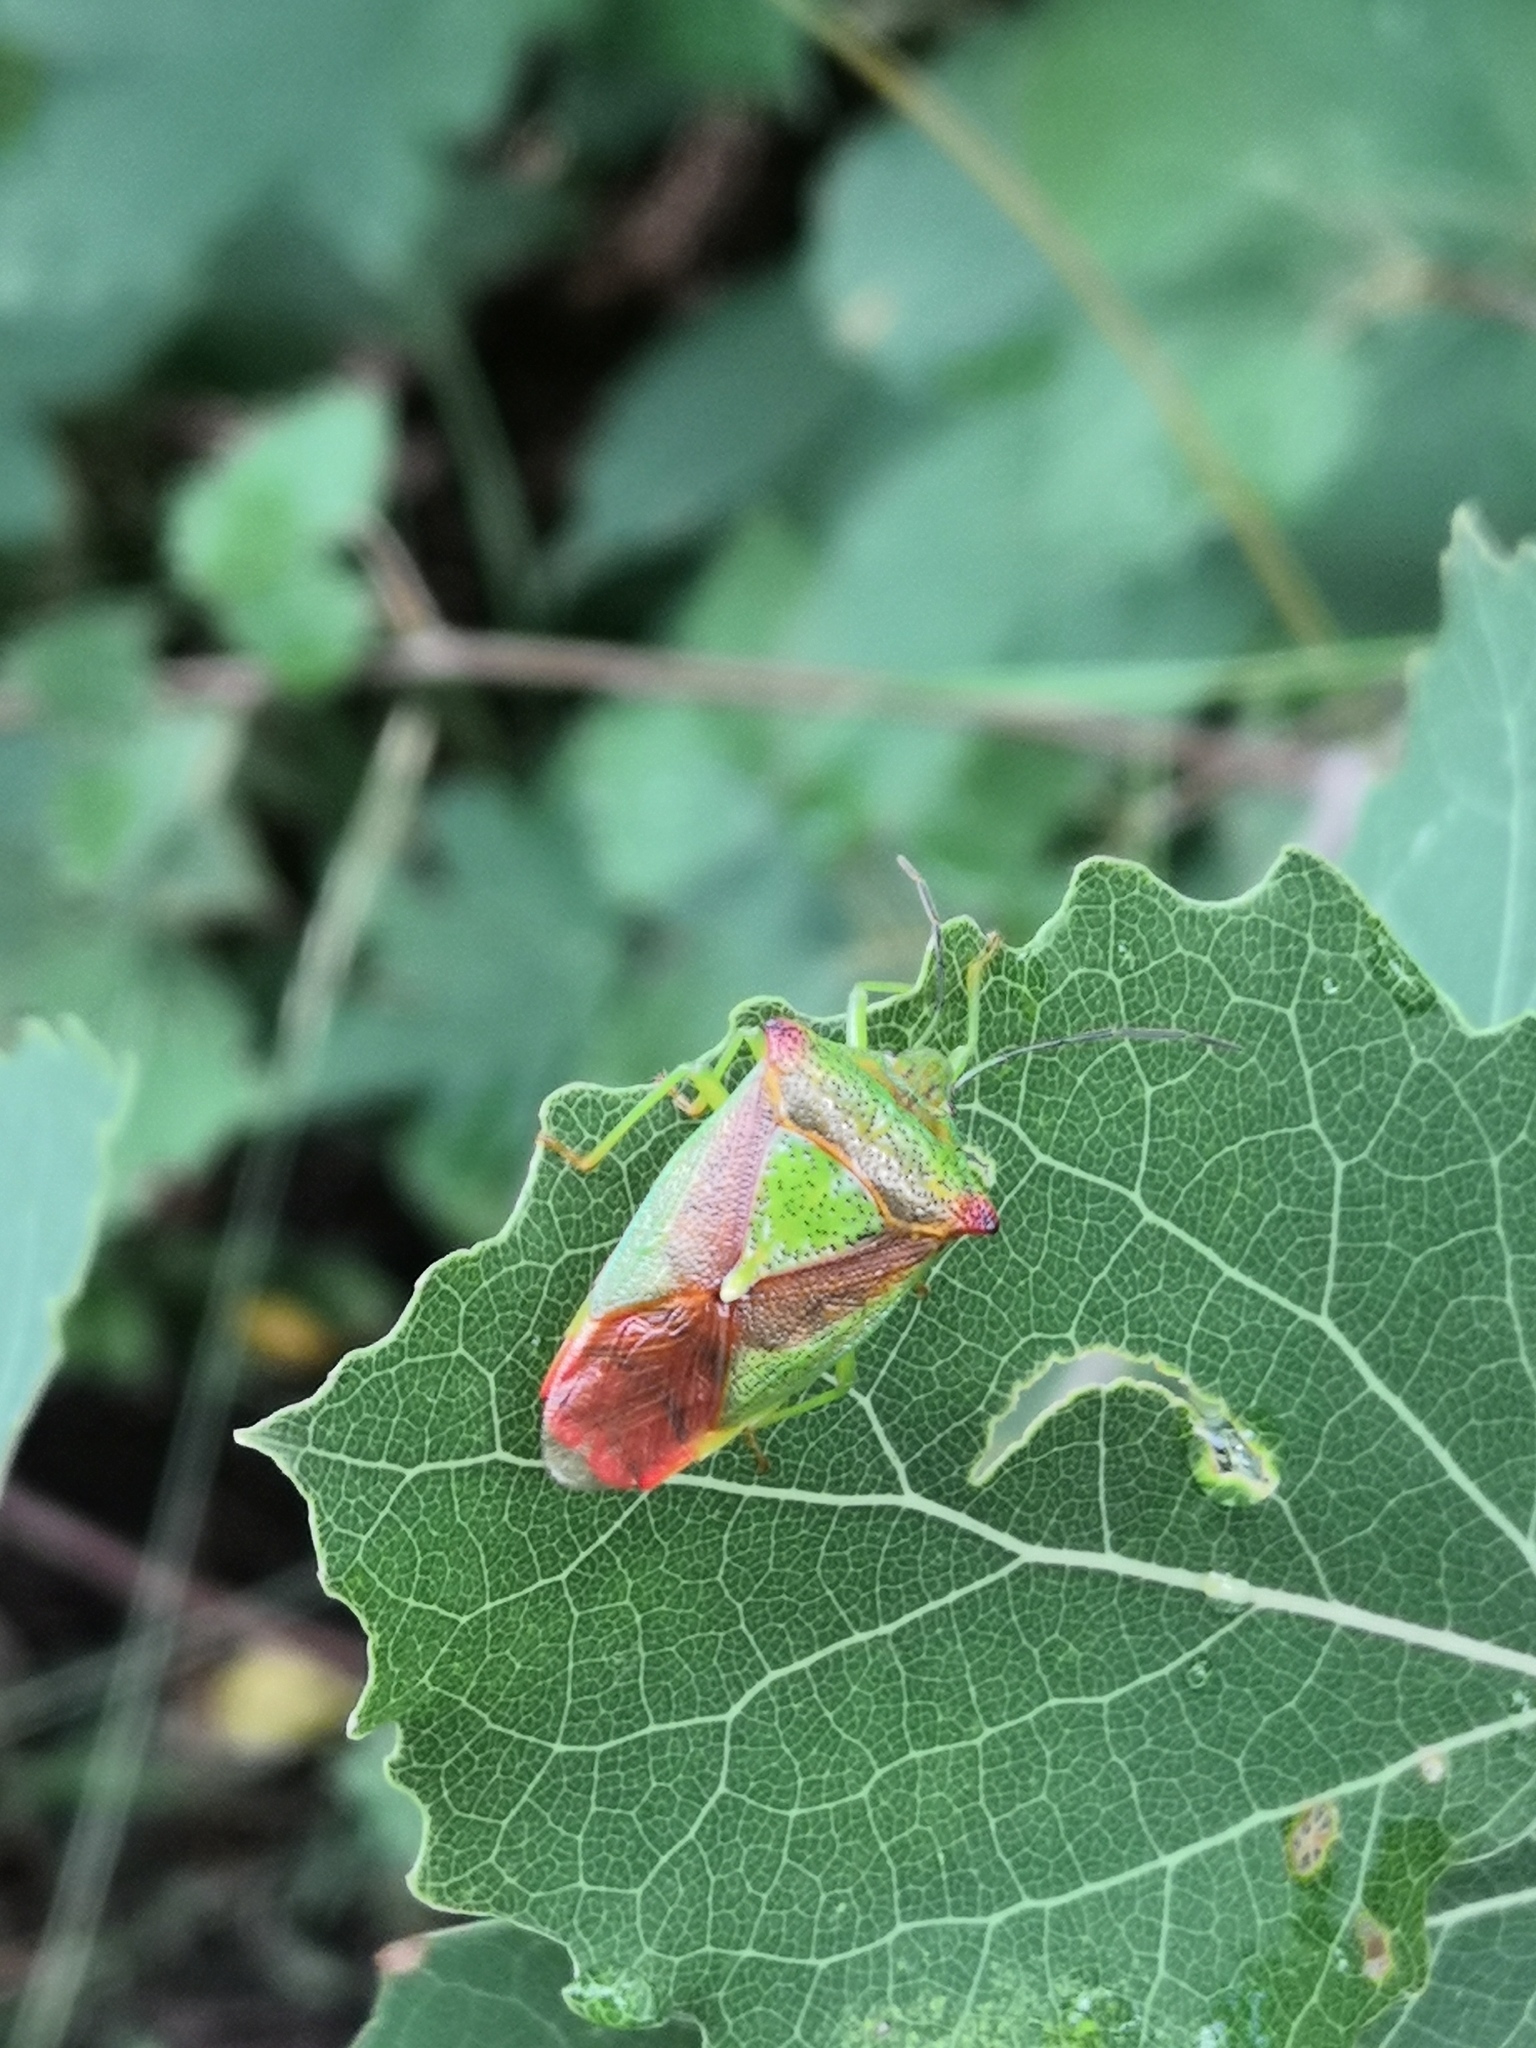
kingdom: Animalia
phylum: Arthropoda
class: Insecta
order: Hemiptera
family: Acanthosomatidae
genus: Acanthosoma
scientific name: Acanthosoma haemorrhoidale
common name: Hawthorn shieldbug
